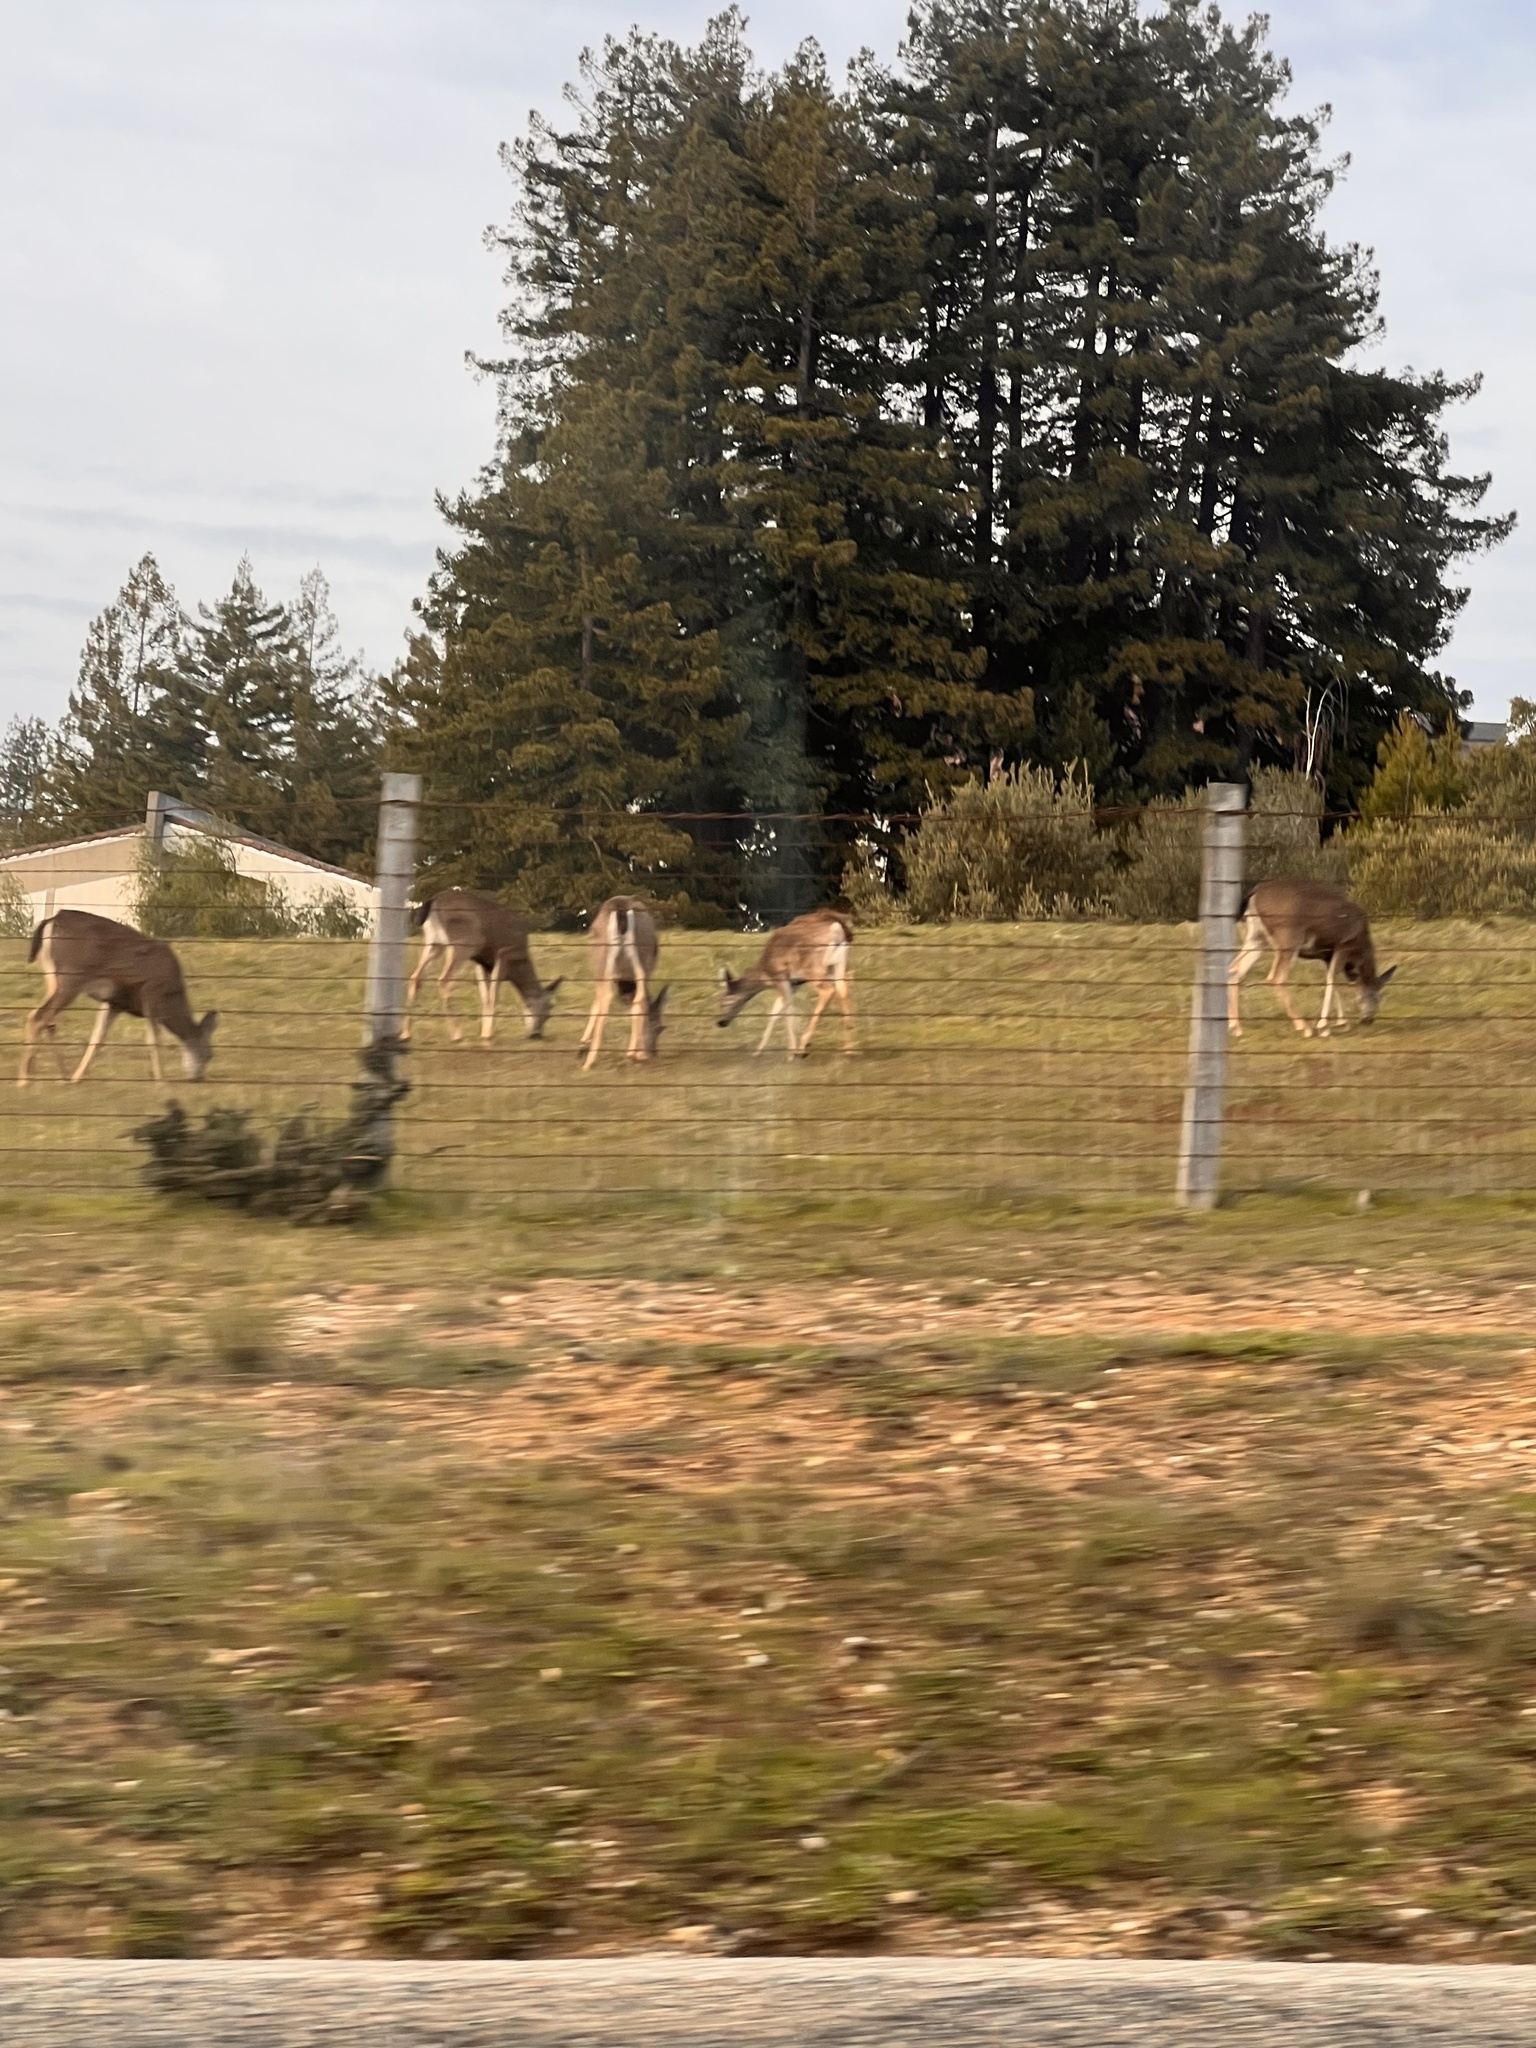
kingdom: Animalia
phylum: Chordata
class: Mammalia
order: Artiodactyla
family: Cervidae
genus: Odocoileus
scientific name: Odocoileus hemionus
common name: Mule deer
